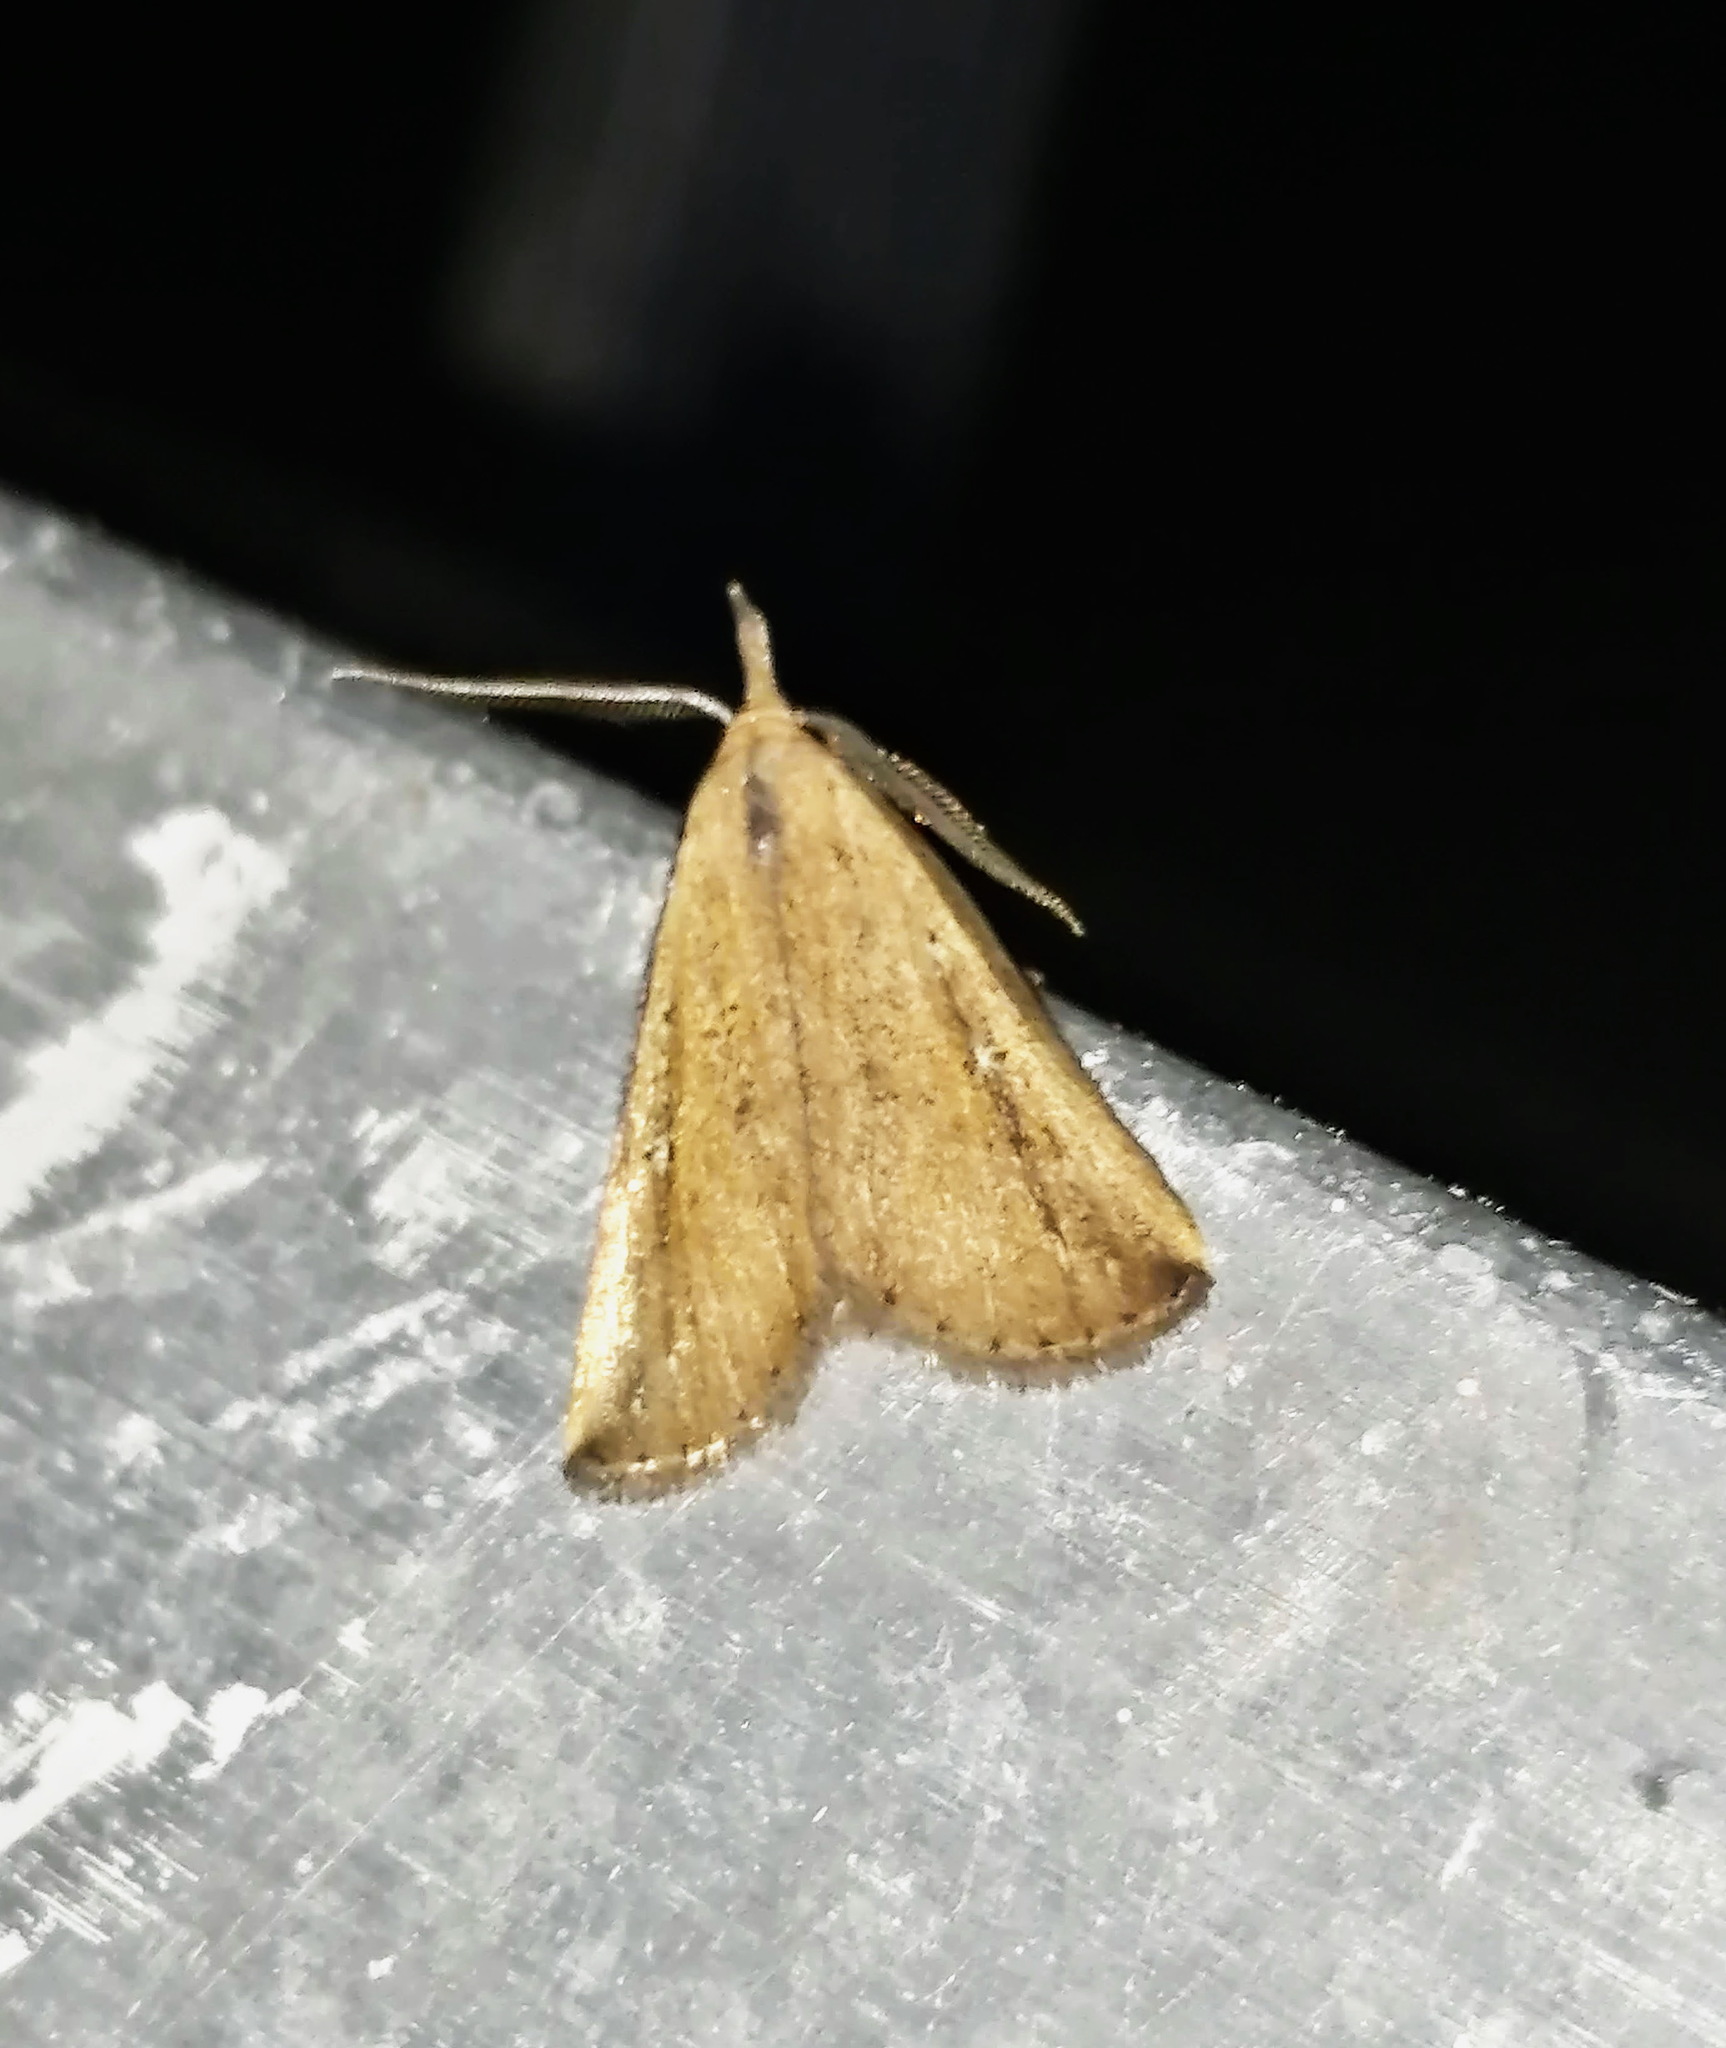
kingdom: Animalia
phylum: Arthropoda
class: Insecta
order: Lepidoptera
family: Erebidae
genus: Macrochilo
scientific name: Macrochilo orciferalis
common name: Bronzy owlet
